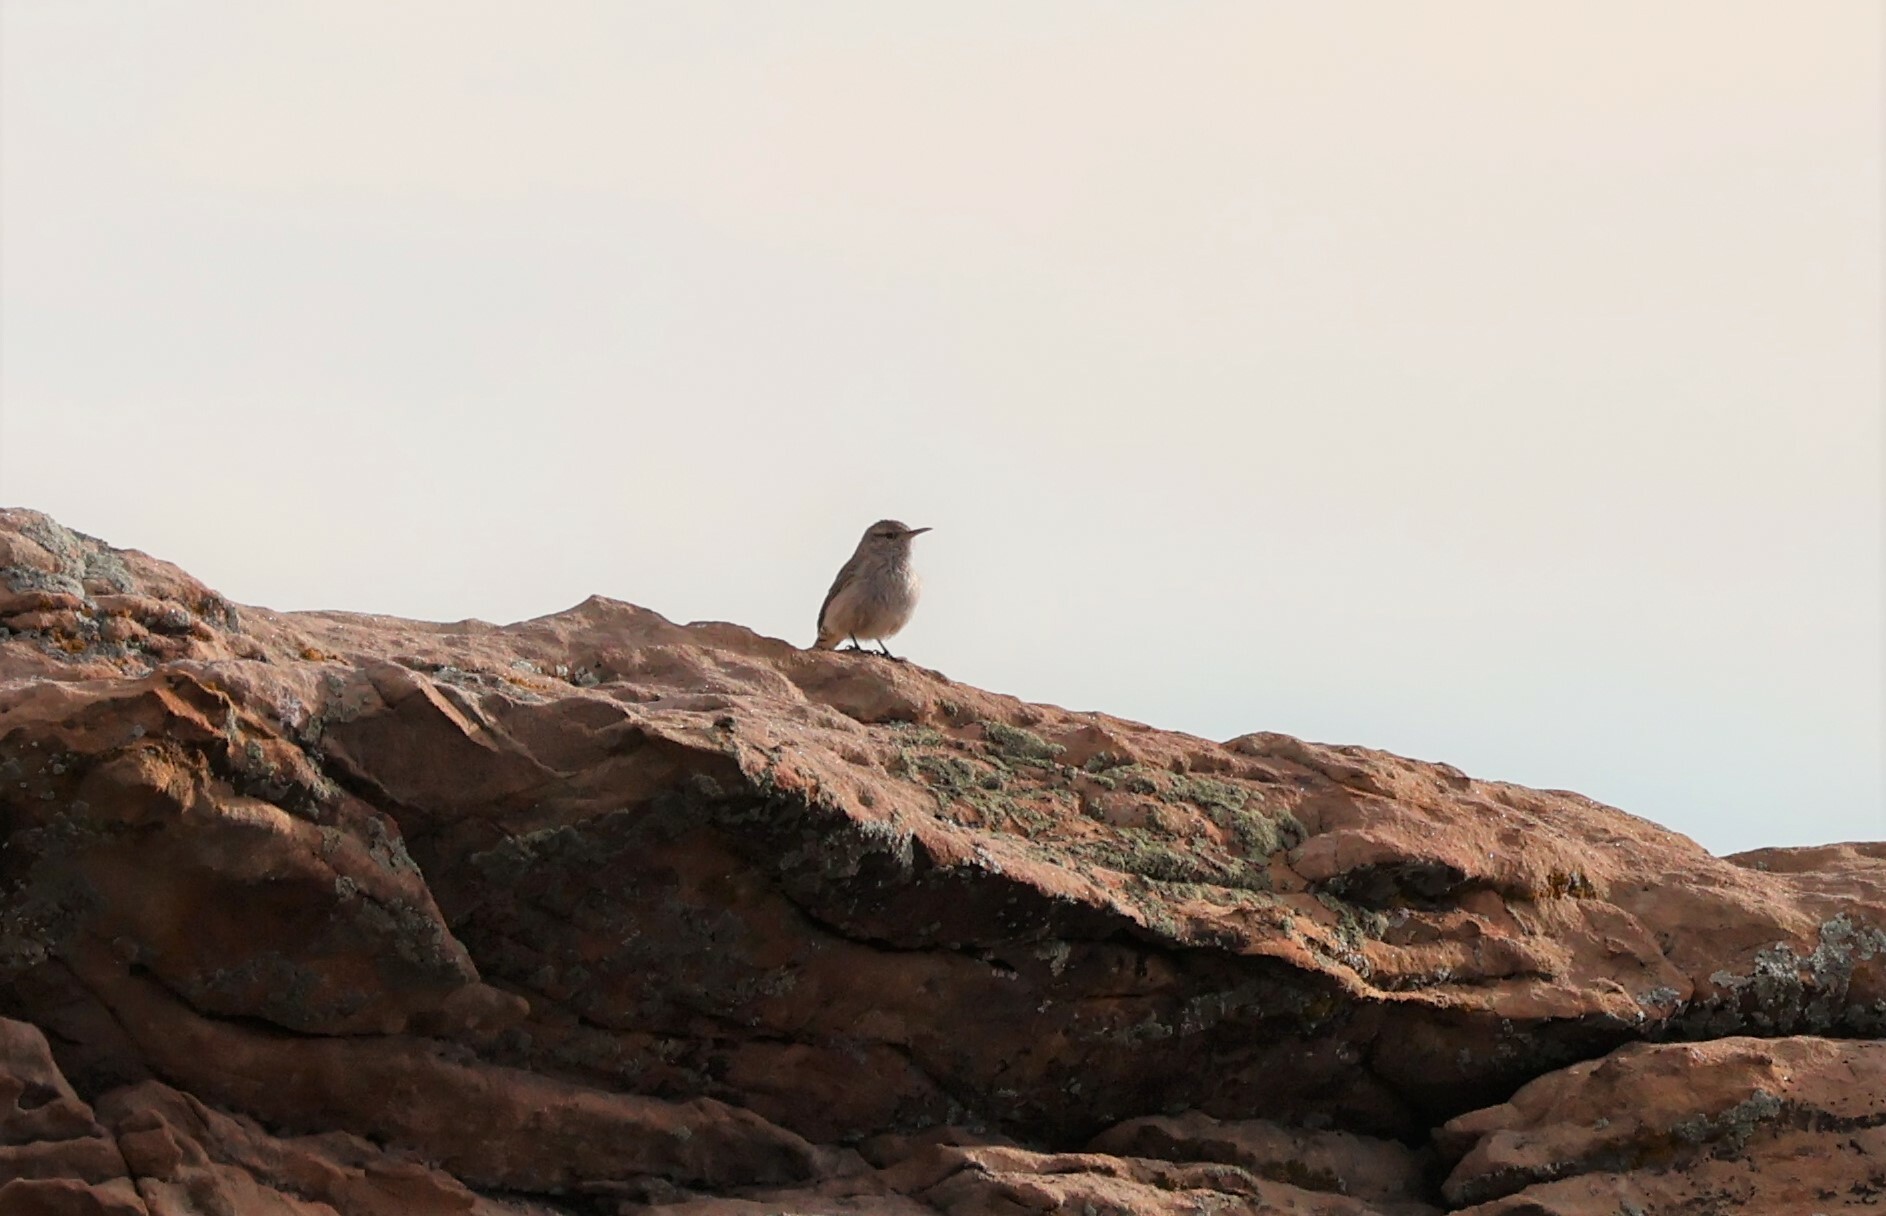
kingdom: Animalia
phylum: Chordata
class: Aves
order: Passeriformes
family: Troglodytidae
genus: Salpinctes
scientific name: Salpinctes obsoletus
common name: Rock wren
